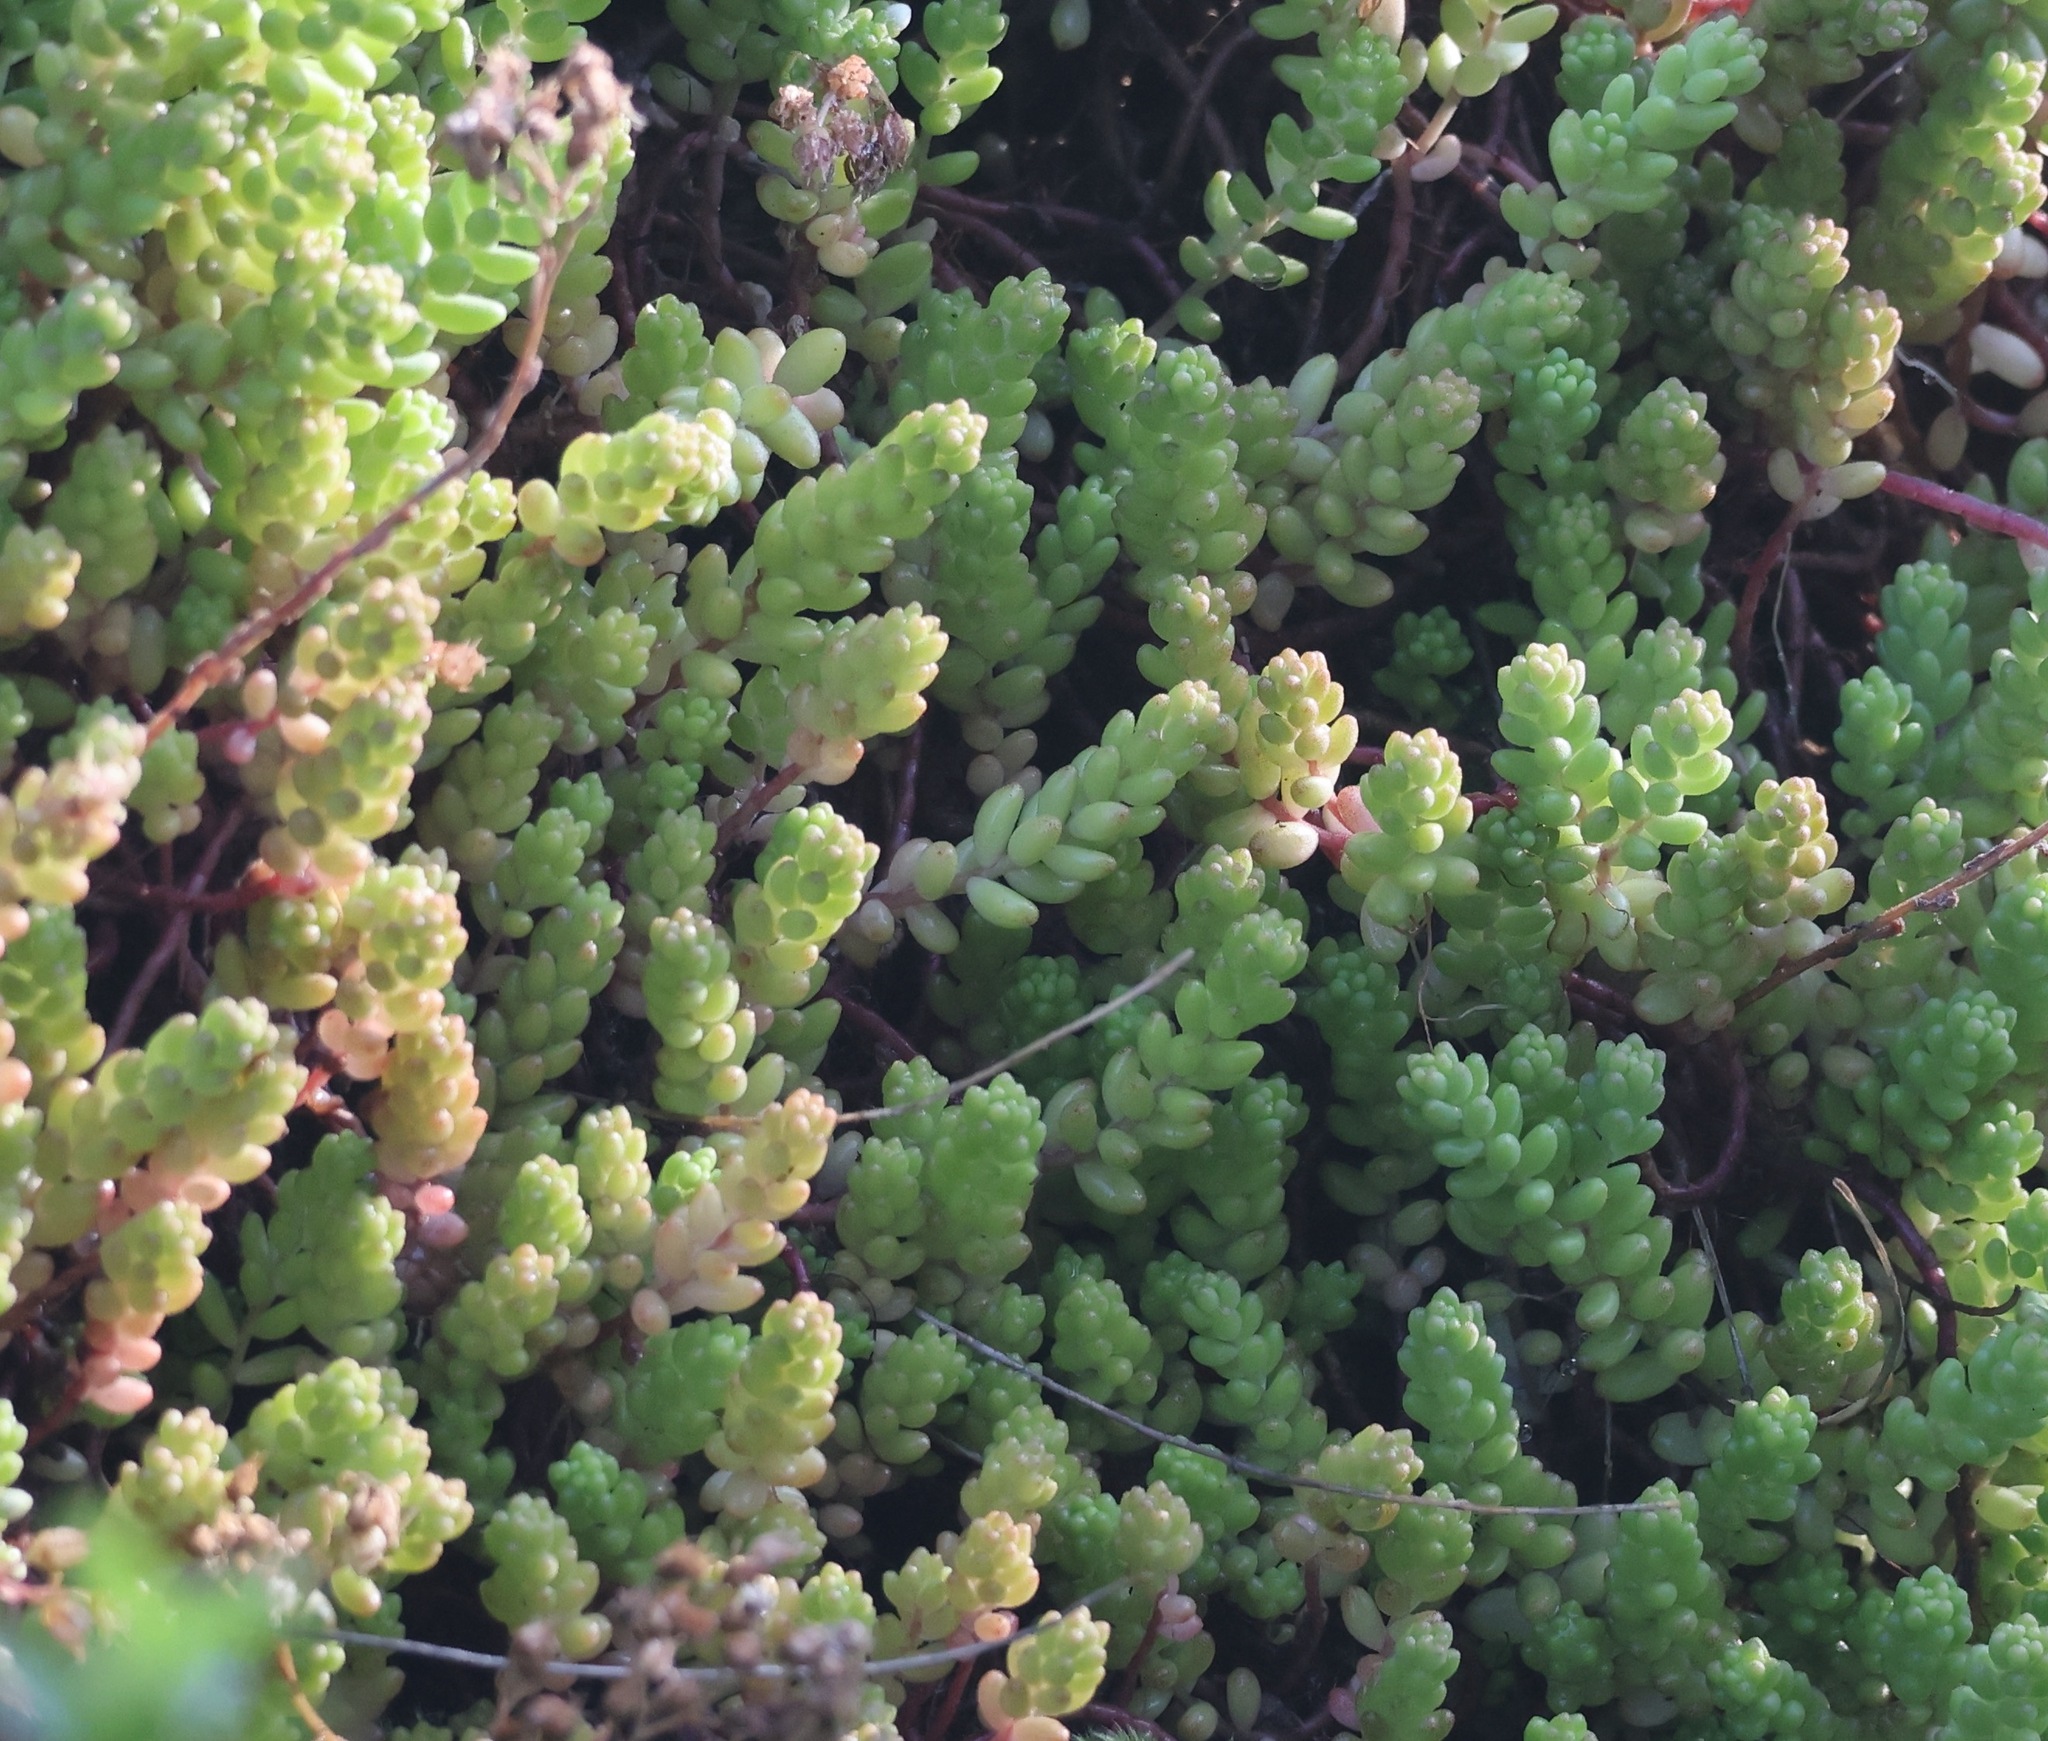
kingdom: Plantae
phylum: Tracheophyta
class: Magnoliopsida
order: Saxifragales
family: Crassulaceae
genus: Sedum
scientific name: Sedum album
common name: White stonecrop
